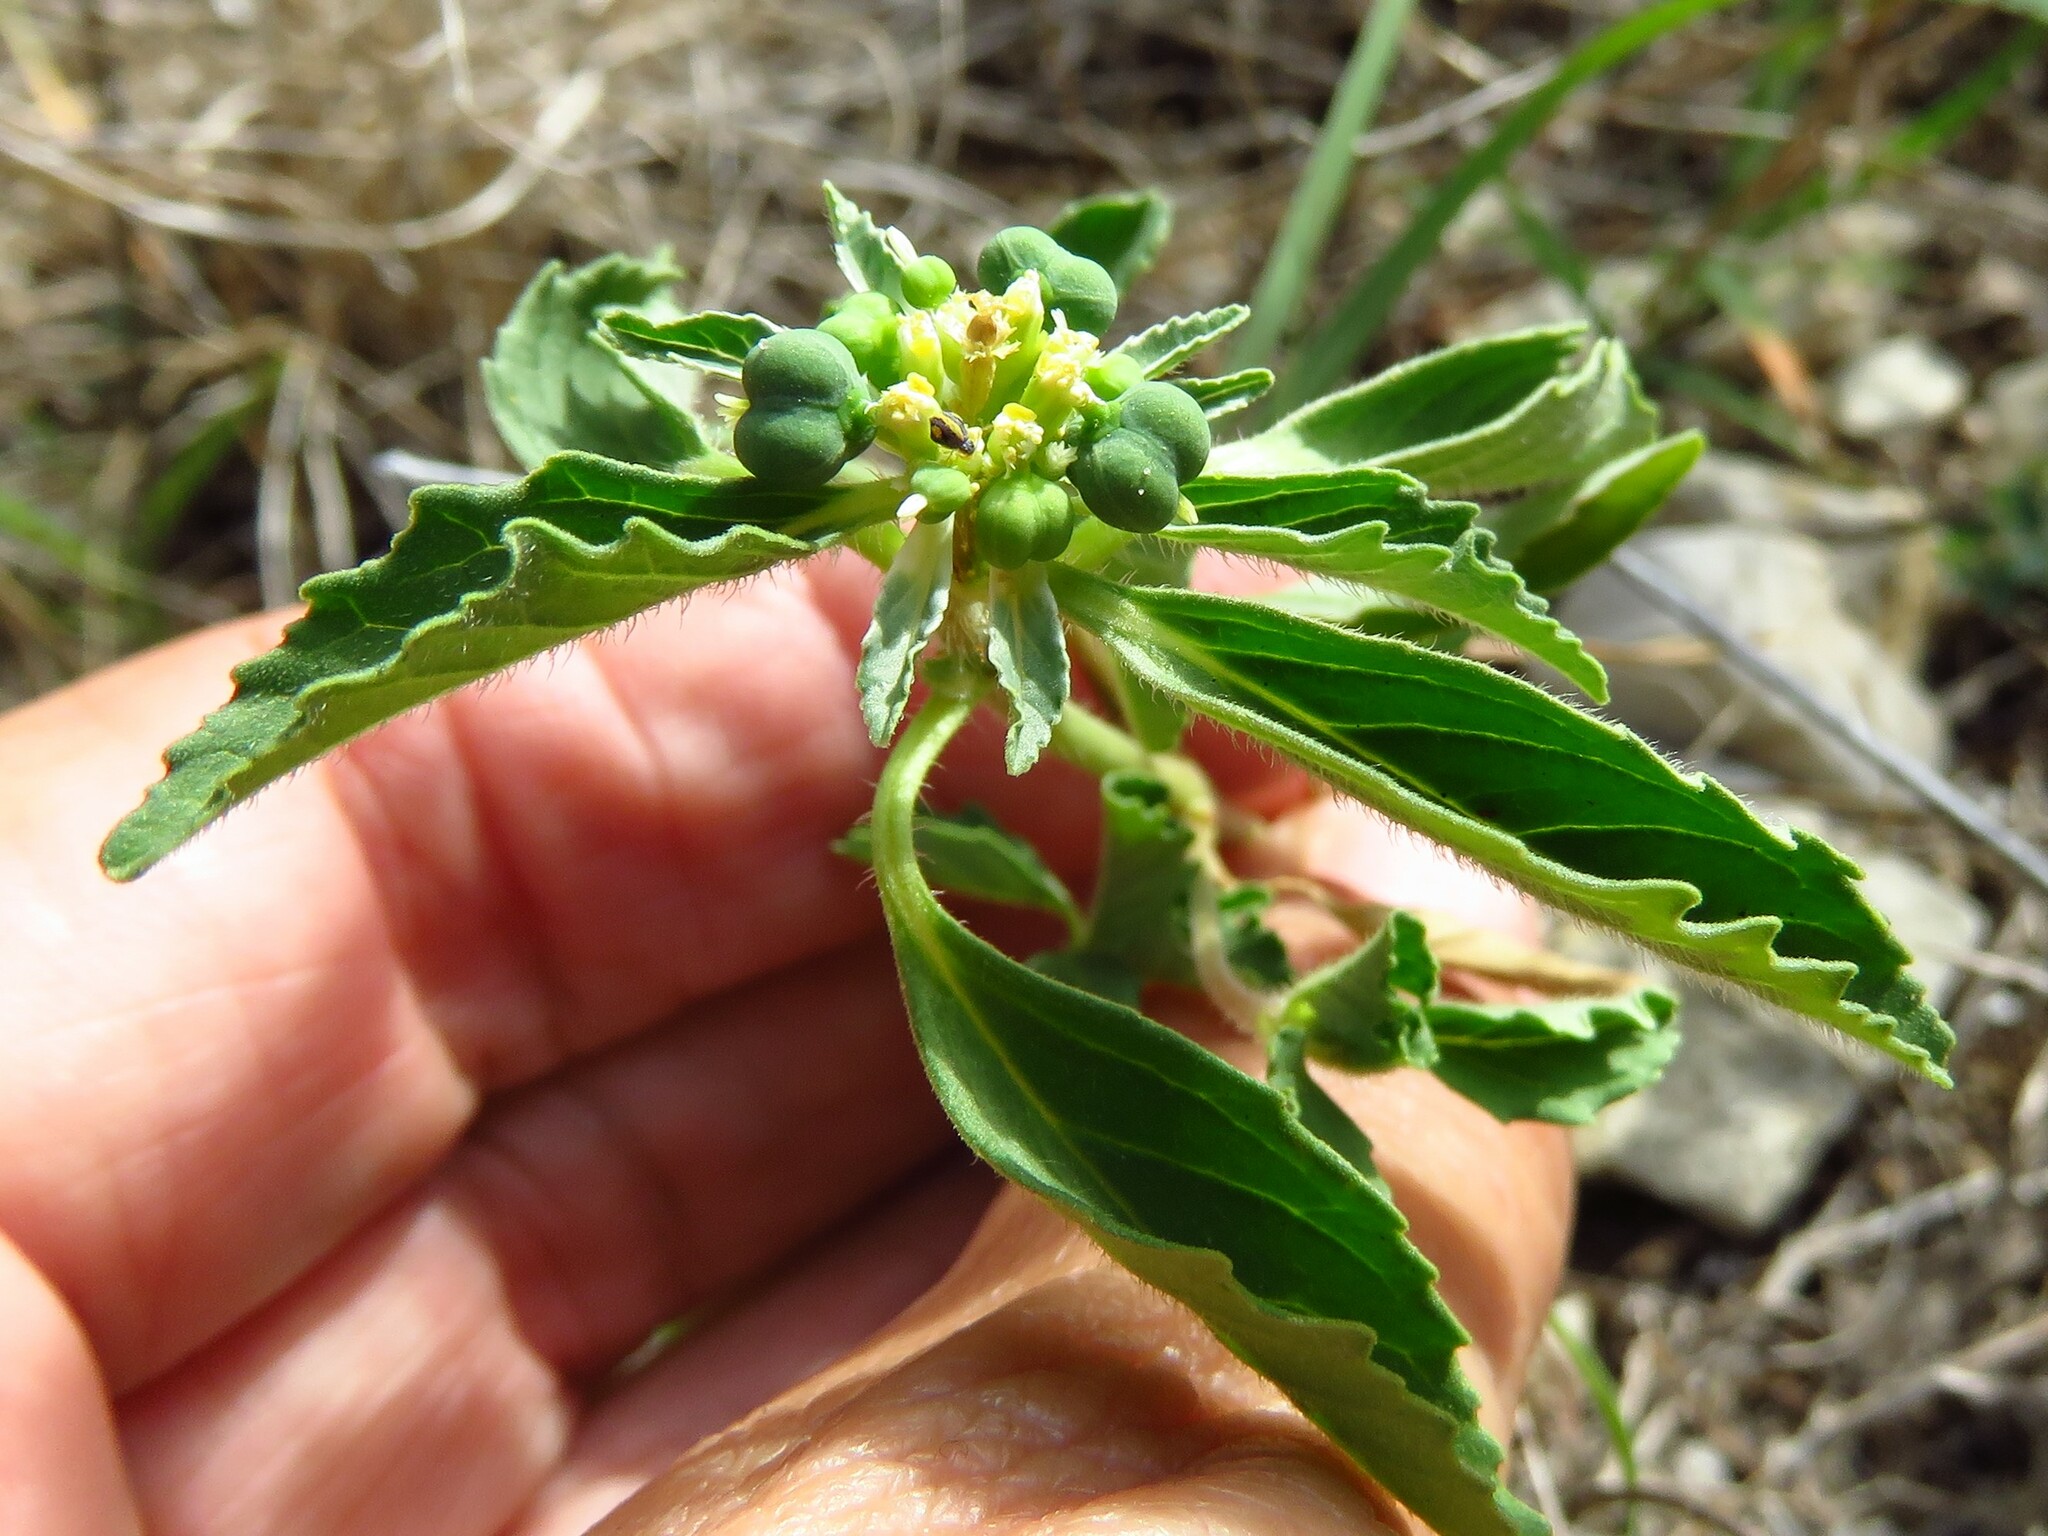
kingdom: Plantae
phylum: Tracheophyta
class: Magnoliopsida
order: Malpighiales
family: Euphorbiaceae
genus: Euphorbia
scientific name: Euphorbia dentata
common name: Dentate spurge
